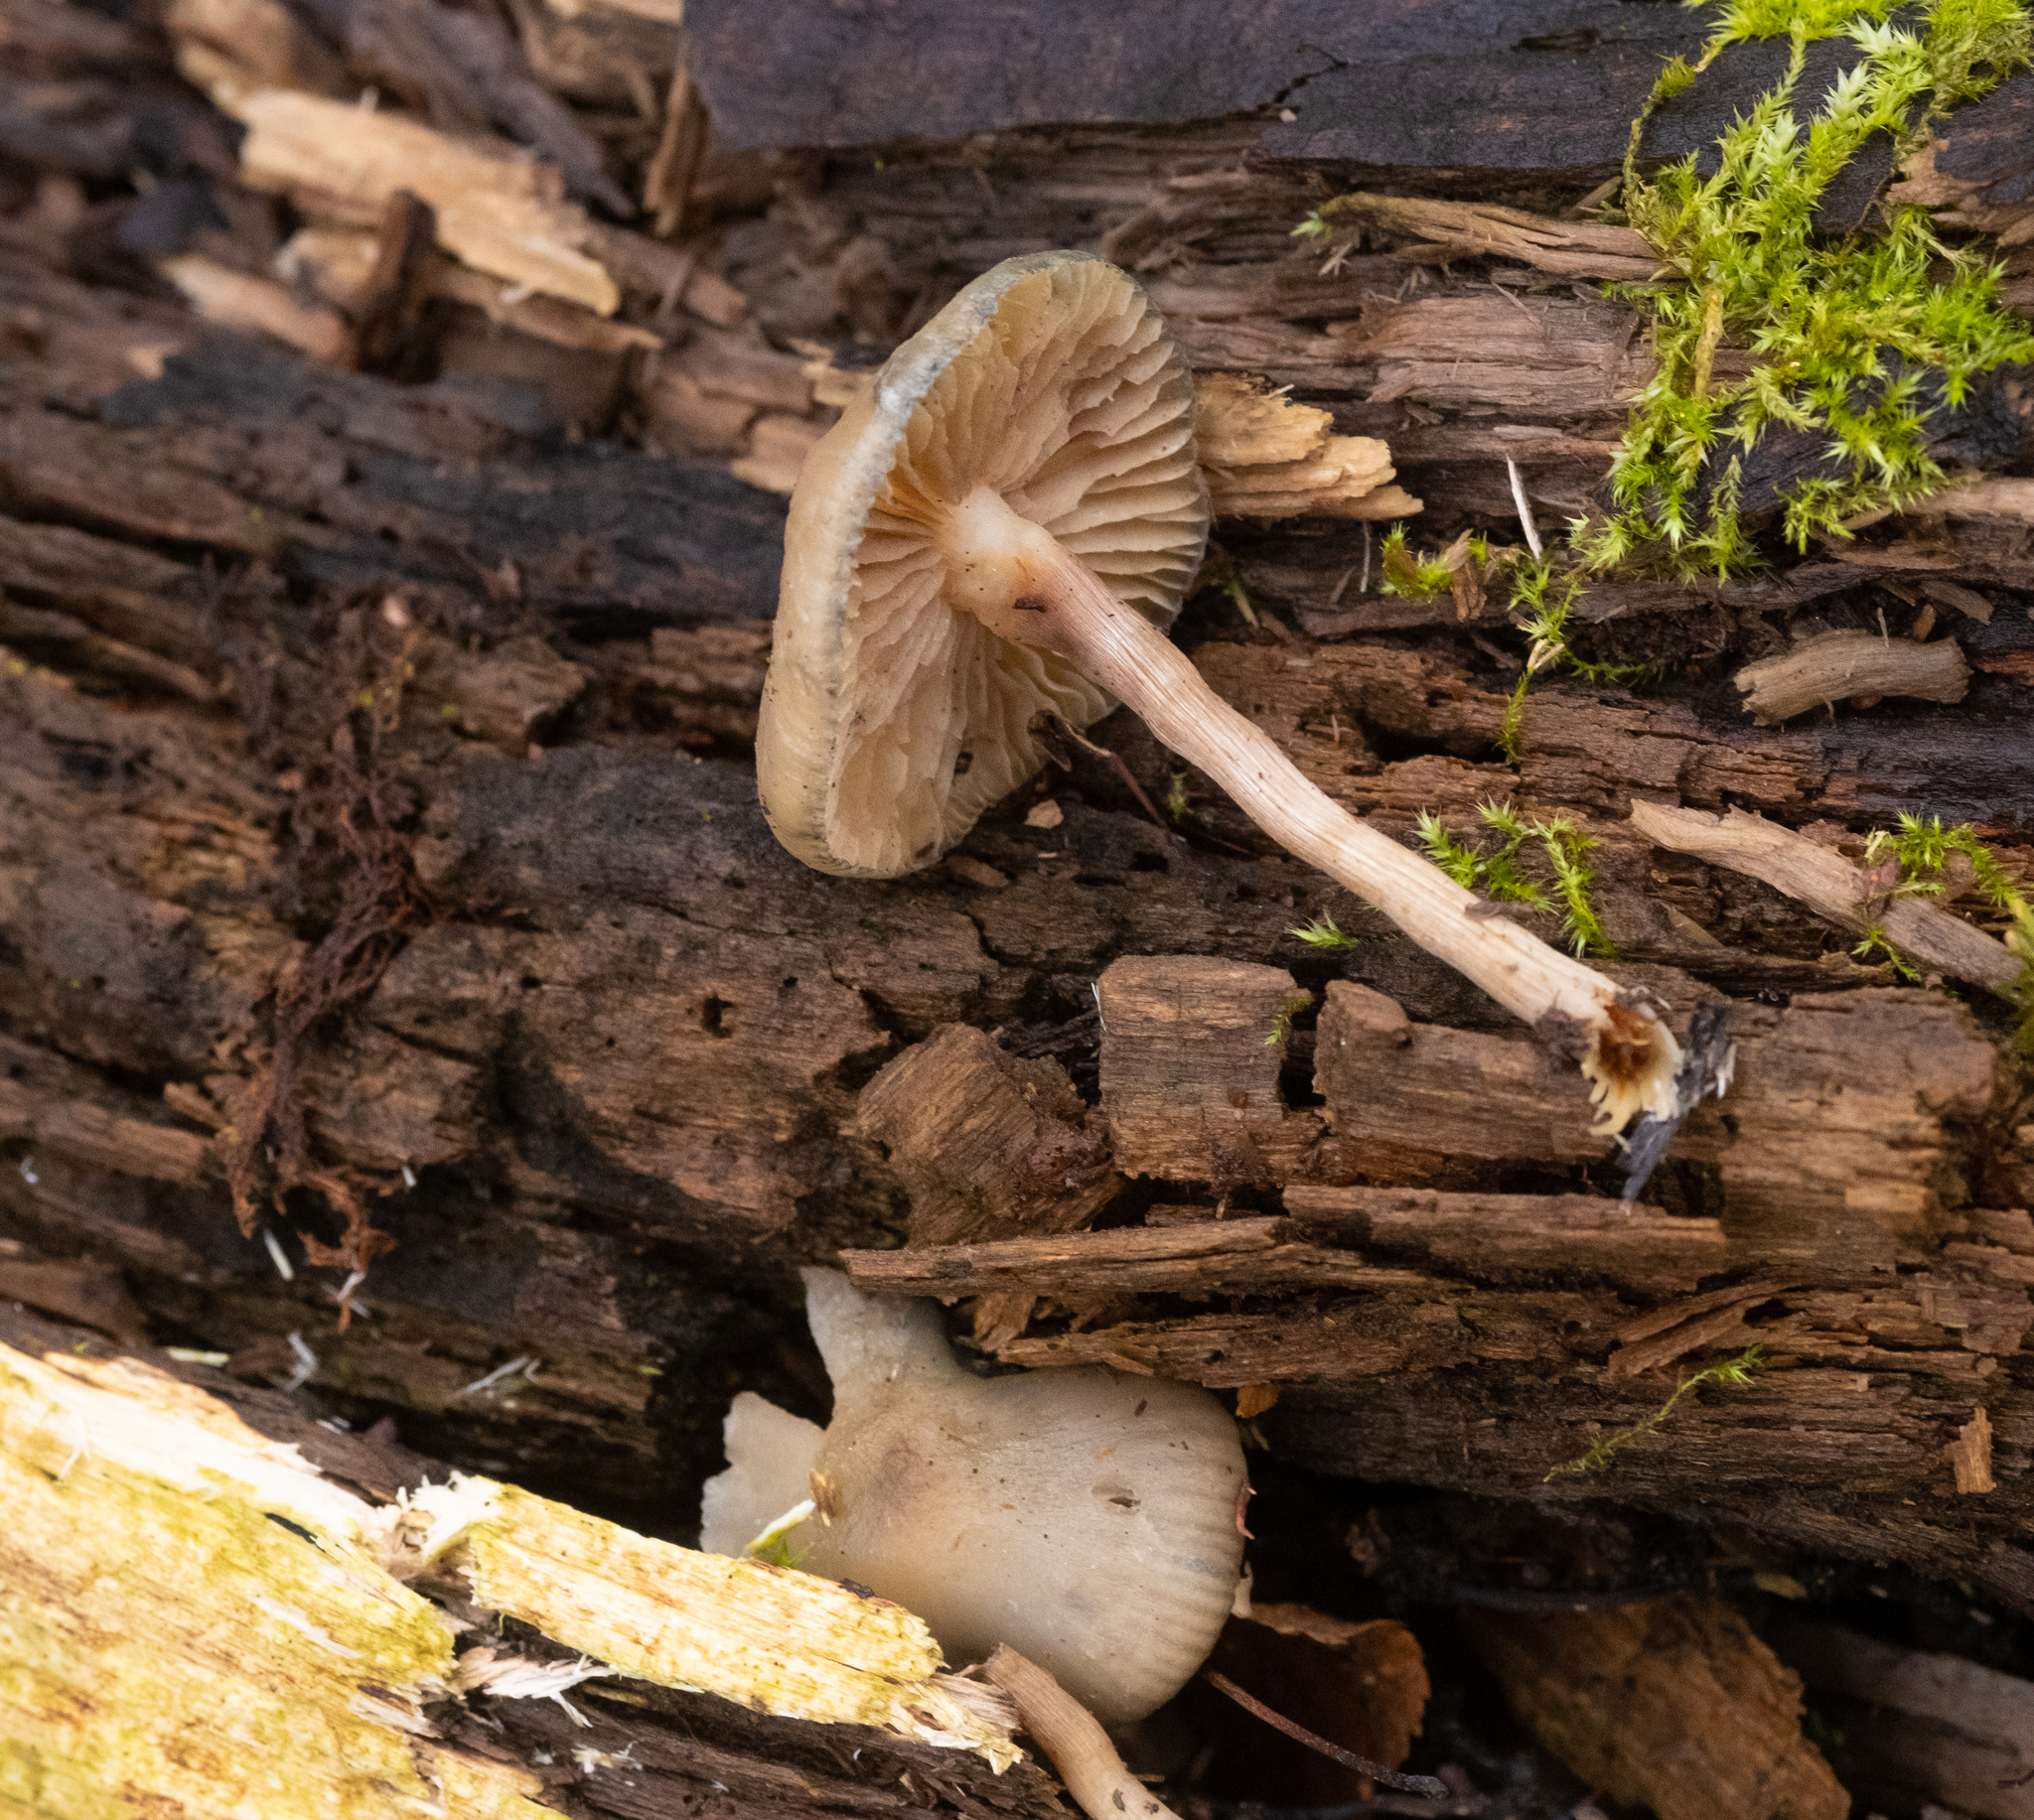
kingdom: Fungi
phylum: Basidiomycota
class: Agaricomycetes
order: Agaricales
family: Hymenogastraceae
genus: Psilocybe
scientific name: Psilocybe serbica
